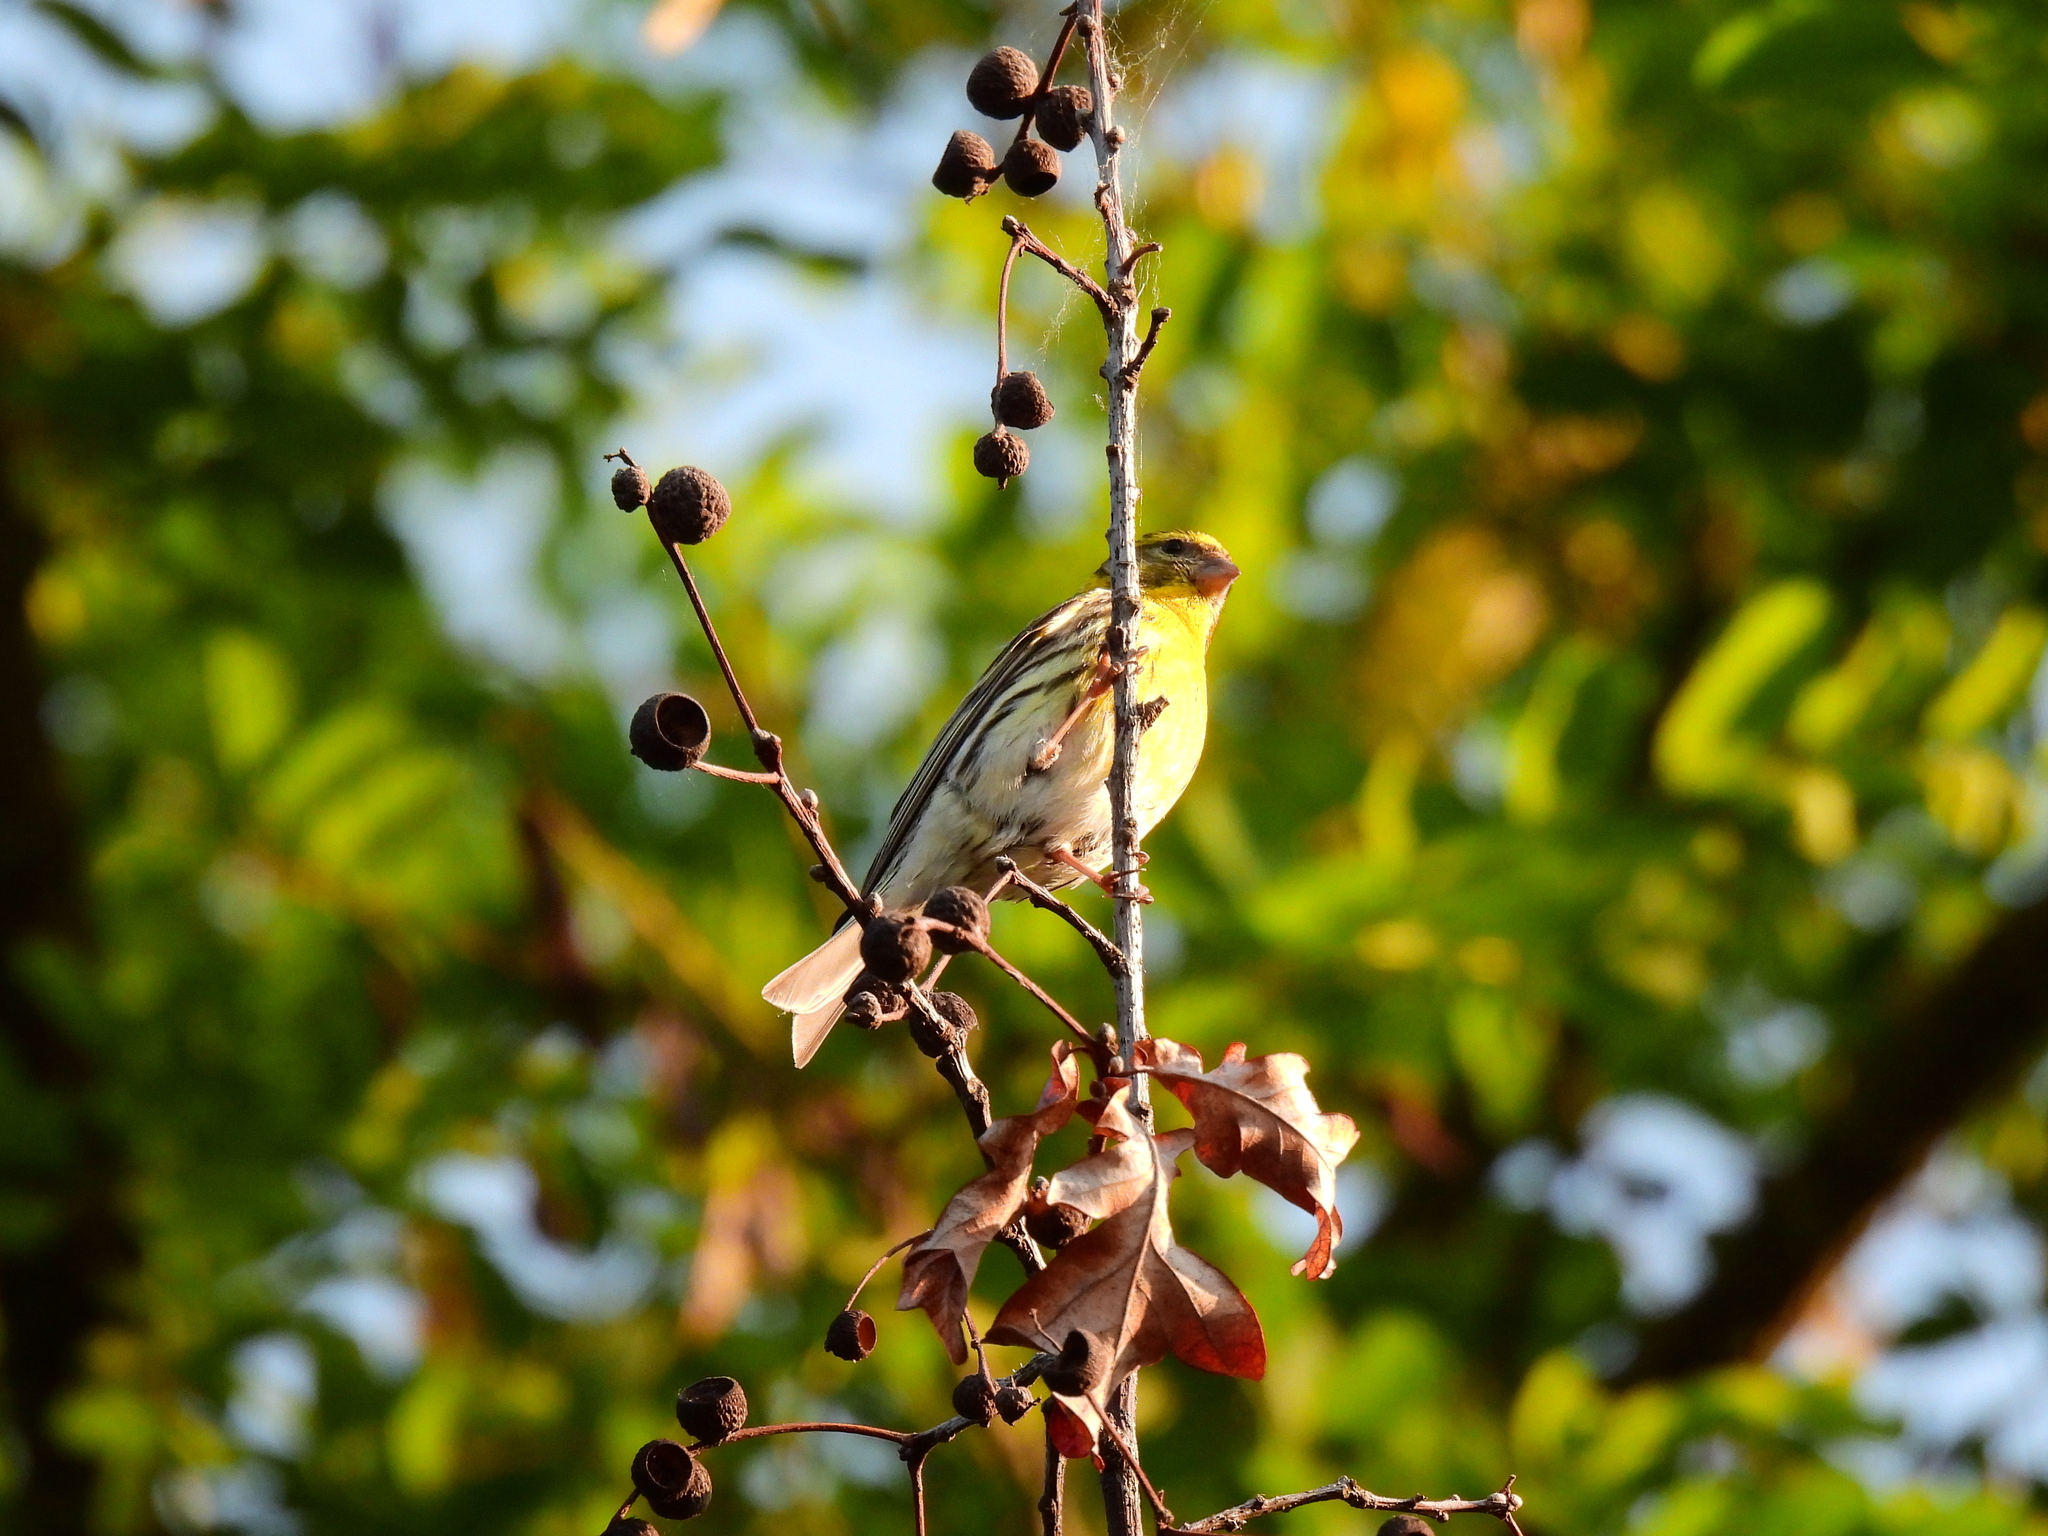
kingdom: Animalia
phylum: Chordata
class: Aves
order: Passeriformes
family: Fringillidae
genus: Serinus
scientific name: Serinus serinus
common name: European serin
